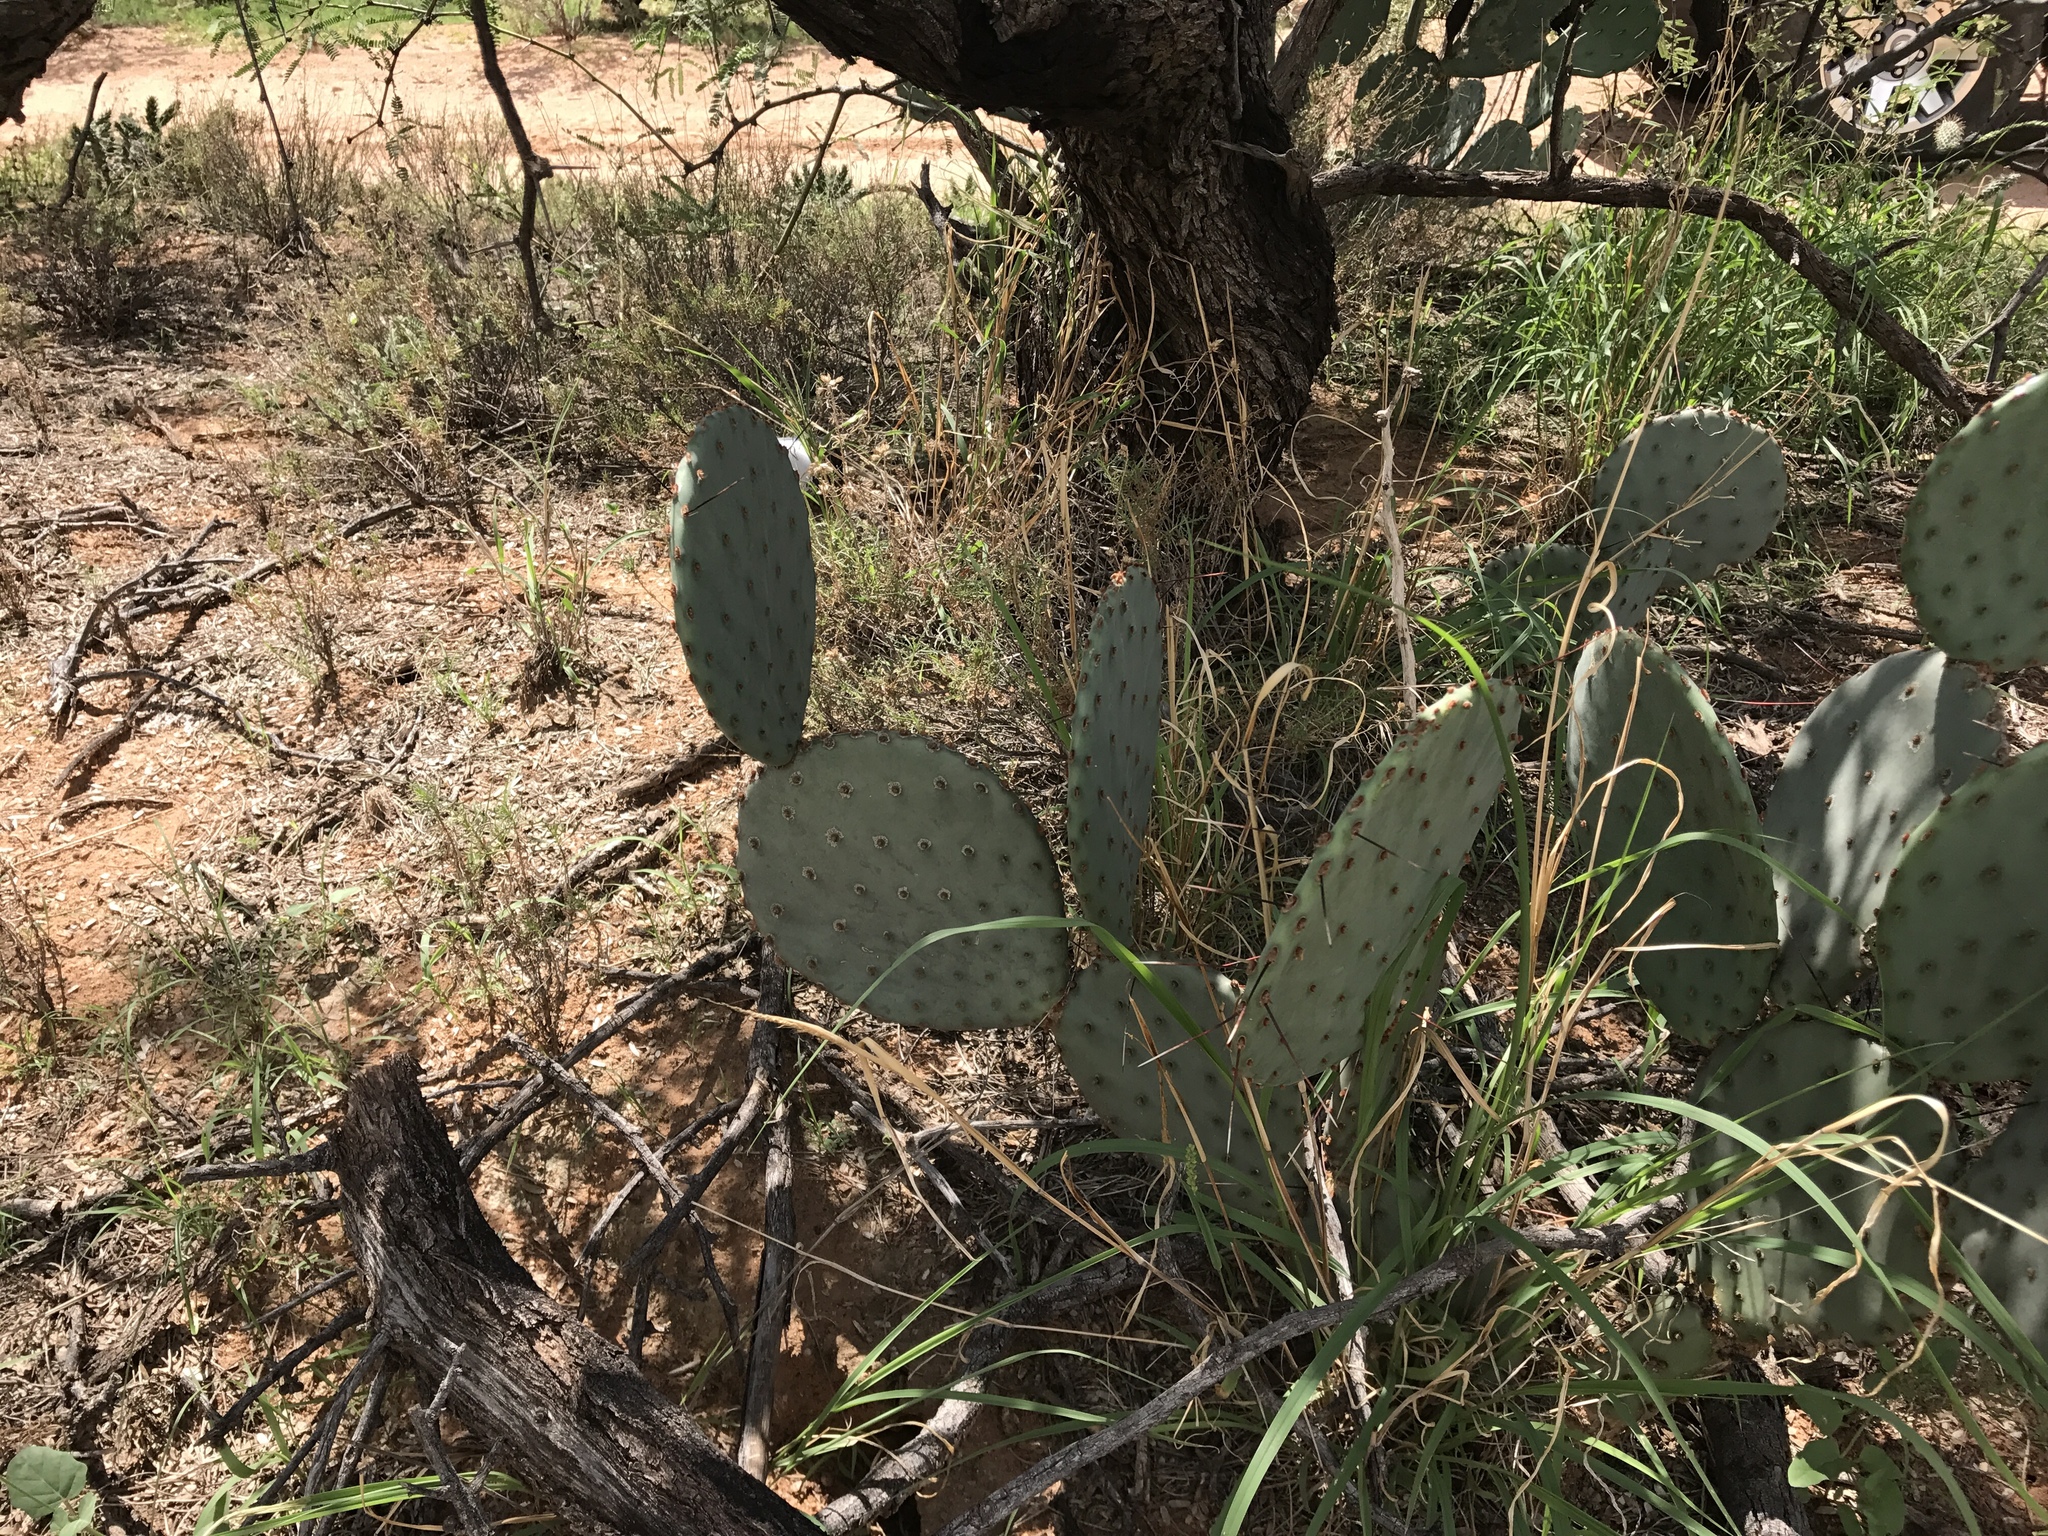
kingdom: Plantae
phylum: Tracheophyta
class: Magnoliopsida
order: Caryophyllales
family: Cactaceae
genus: Opuntia
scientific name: Opuntia macrocentra
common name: Purple prickly-pear
